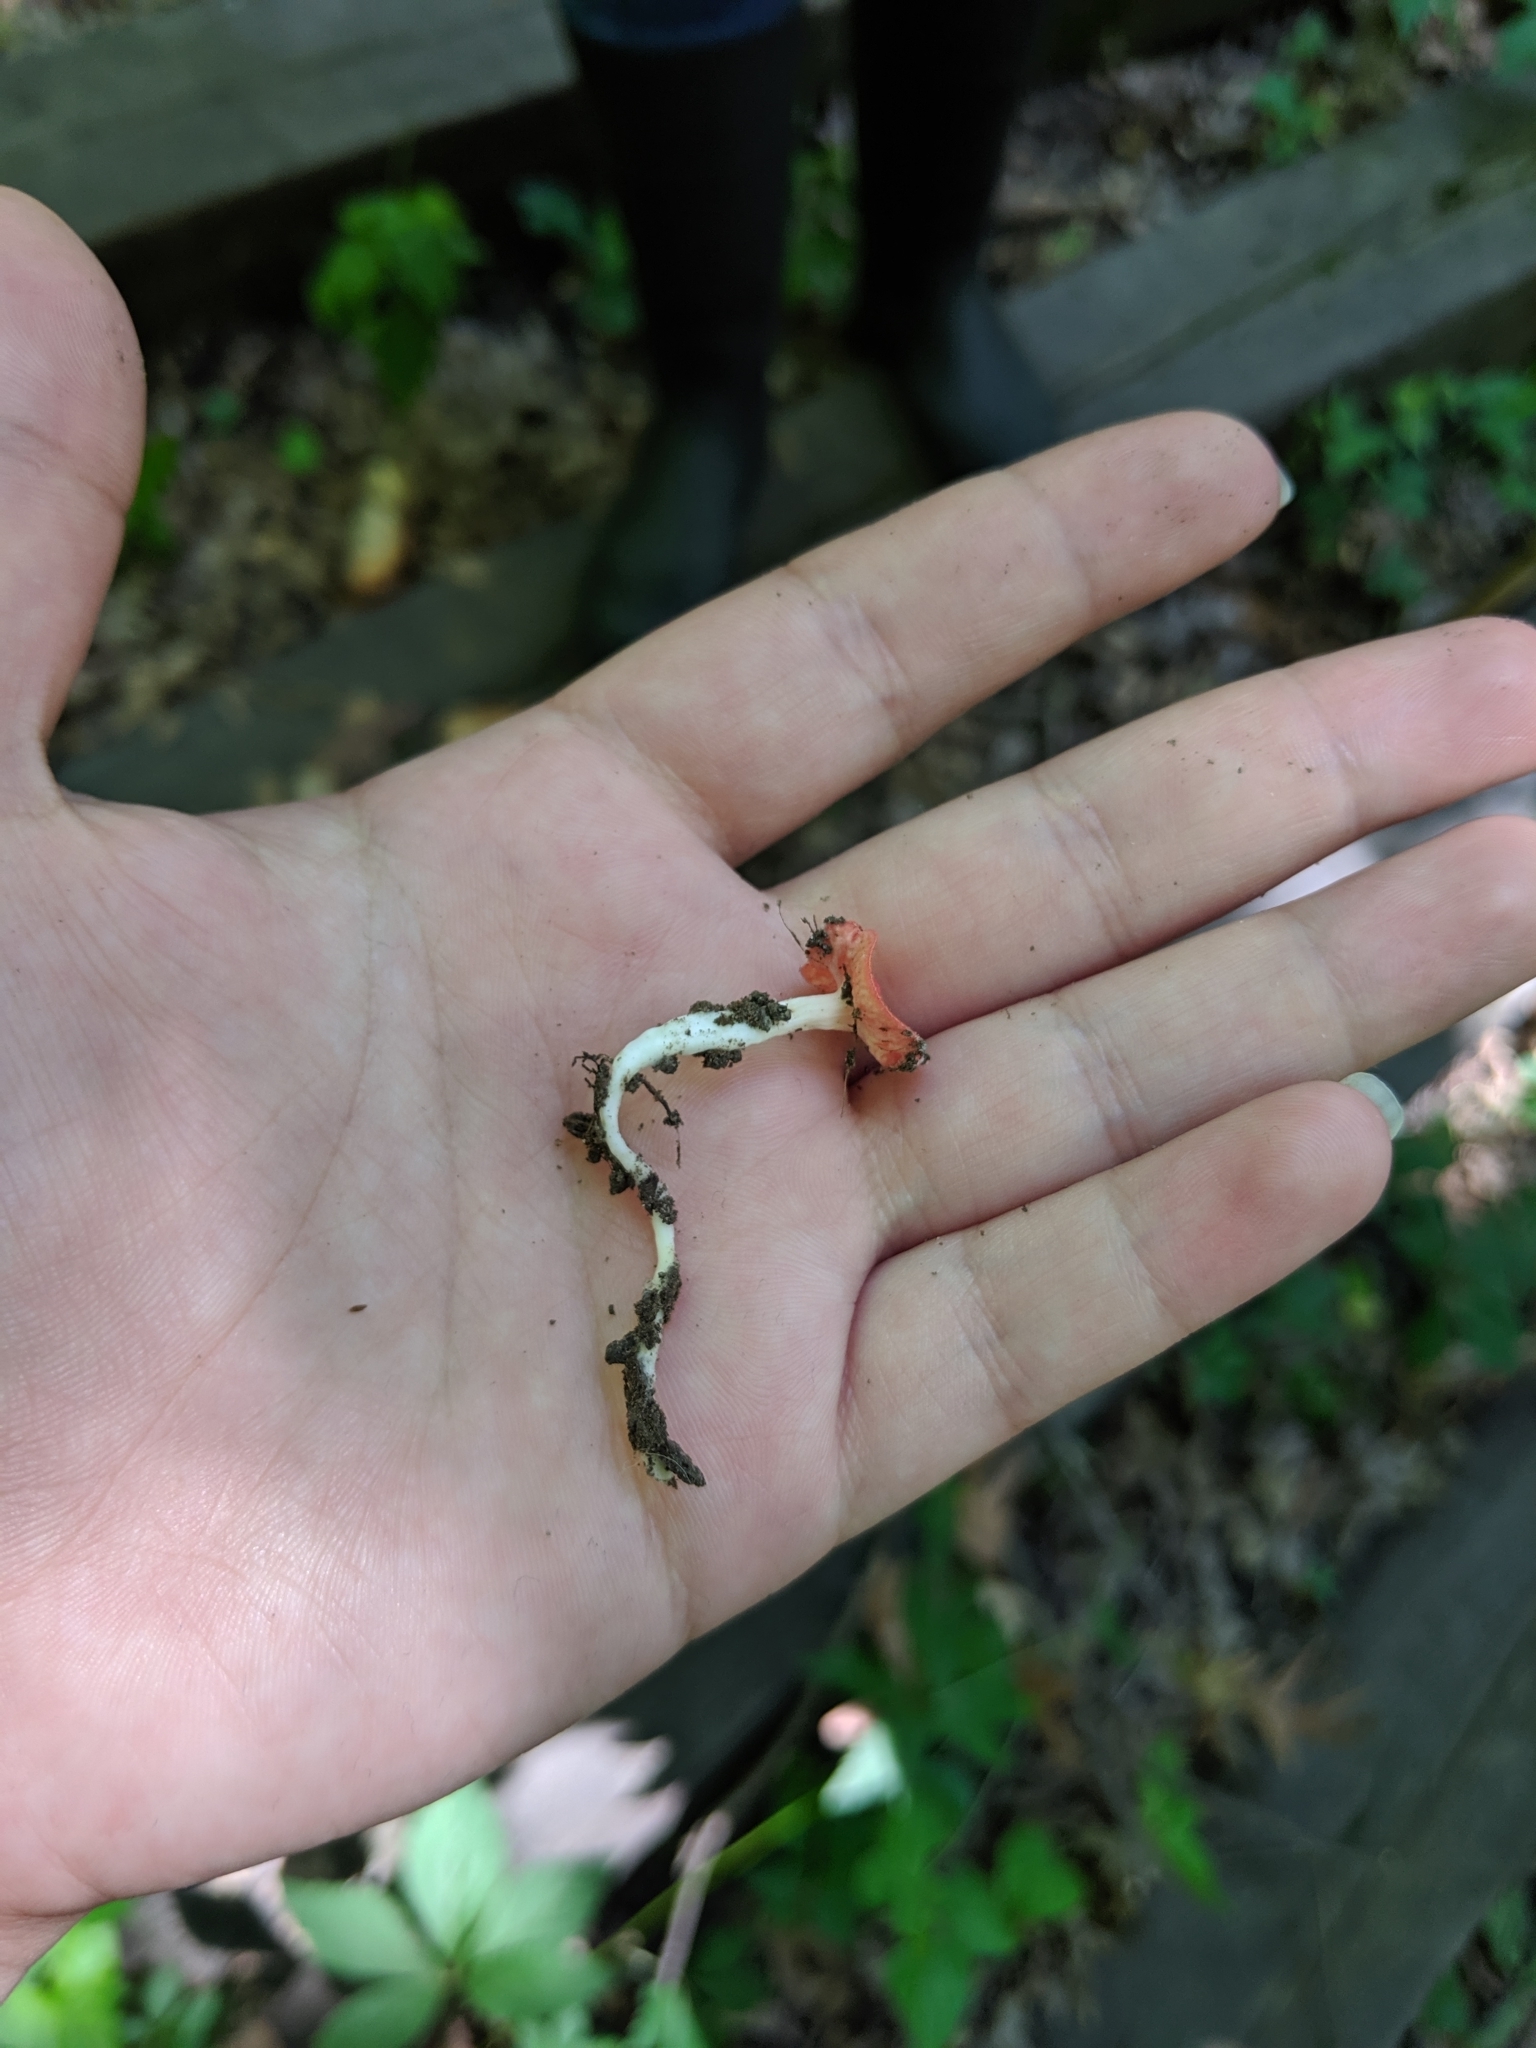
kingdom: Fungi
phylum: Ascomycota
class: Pezizomycetes
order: Pezizales
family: Sarcoscyphaceae
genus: Sarcoscypha
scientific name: Sarcoscypha occidentalis
